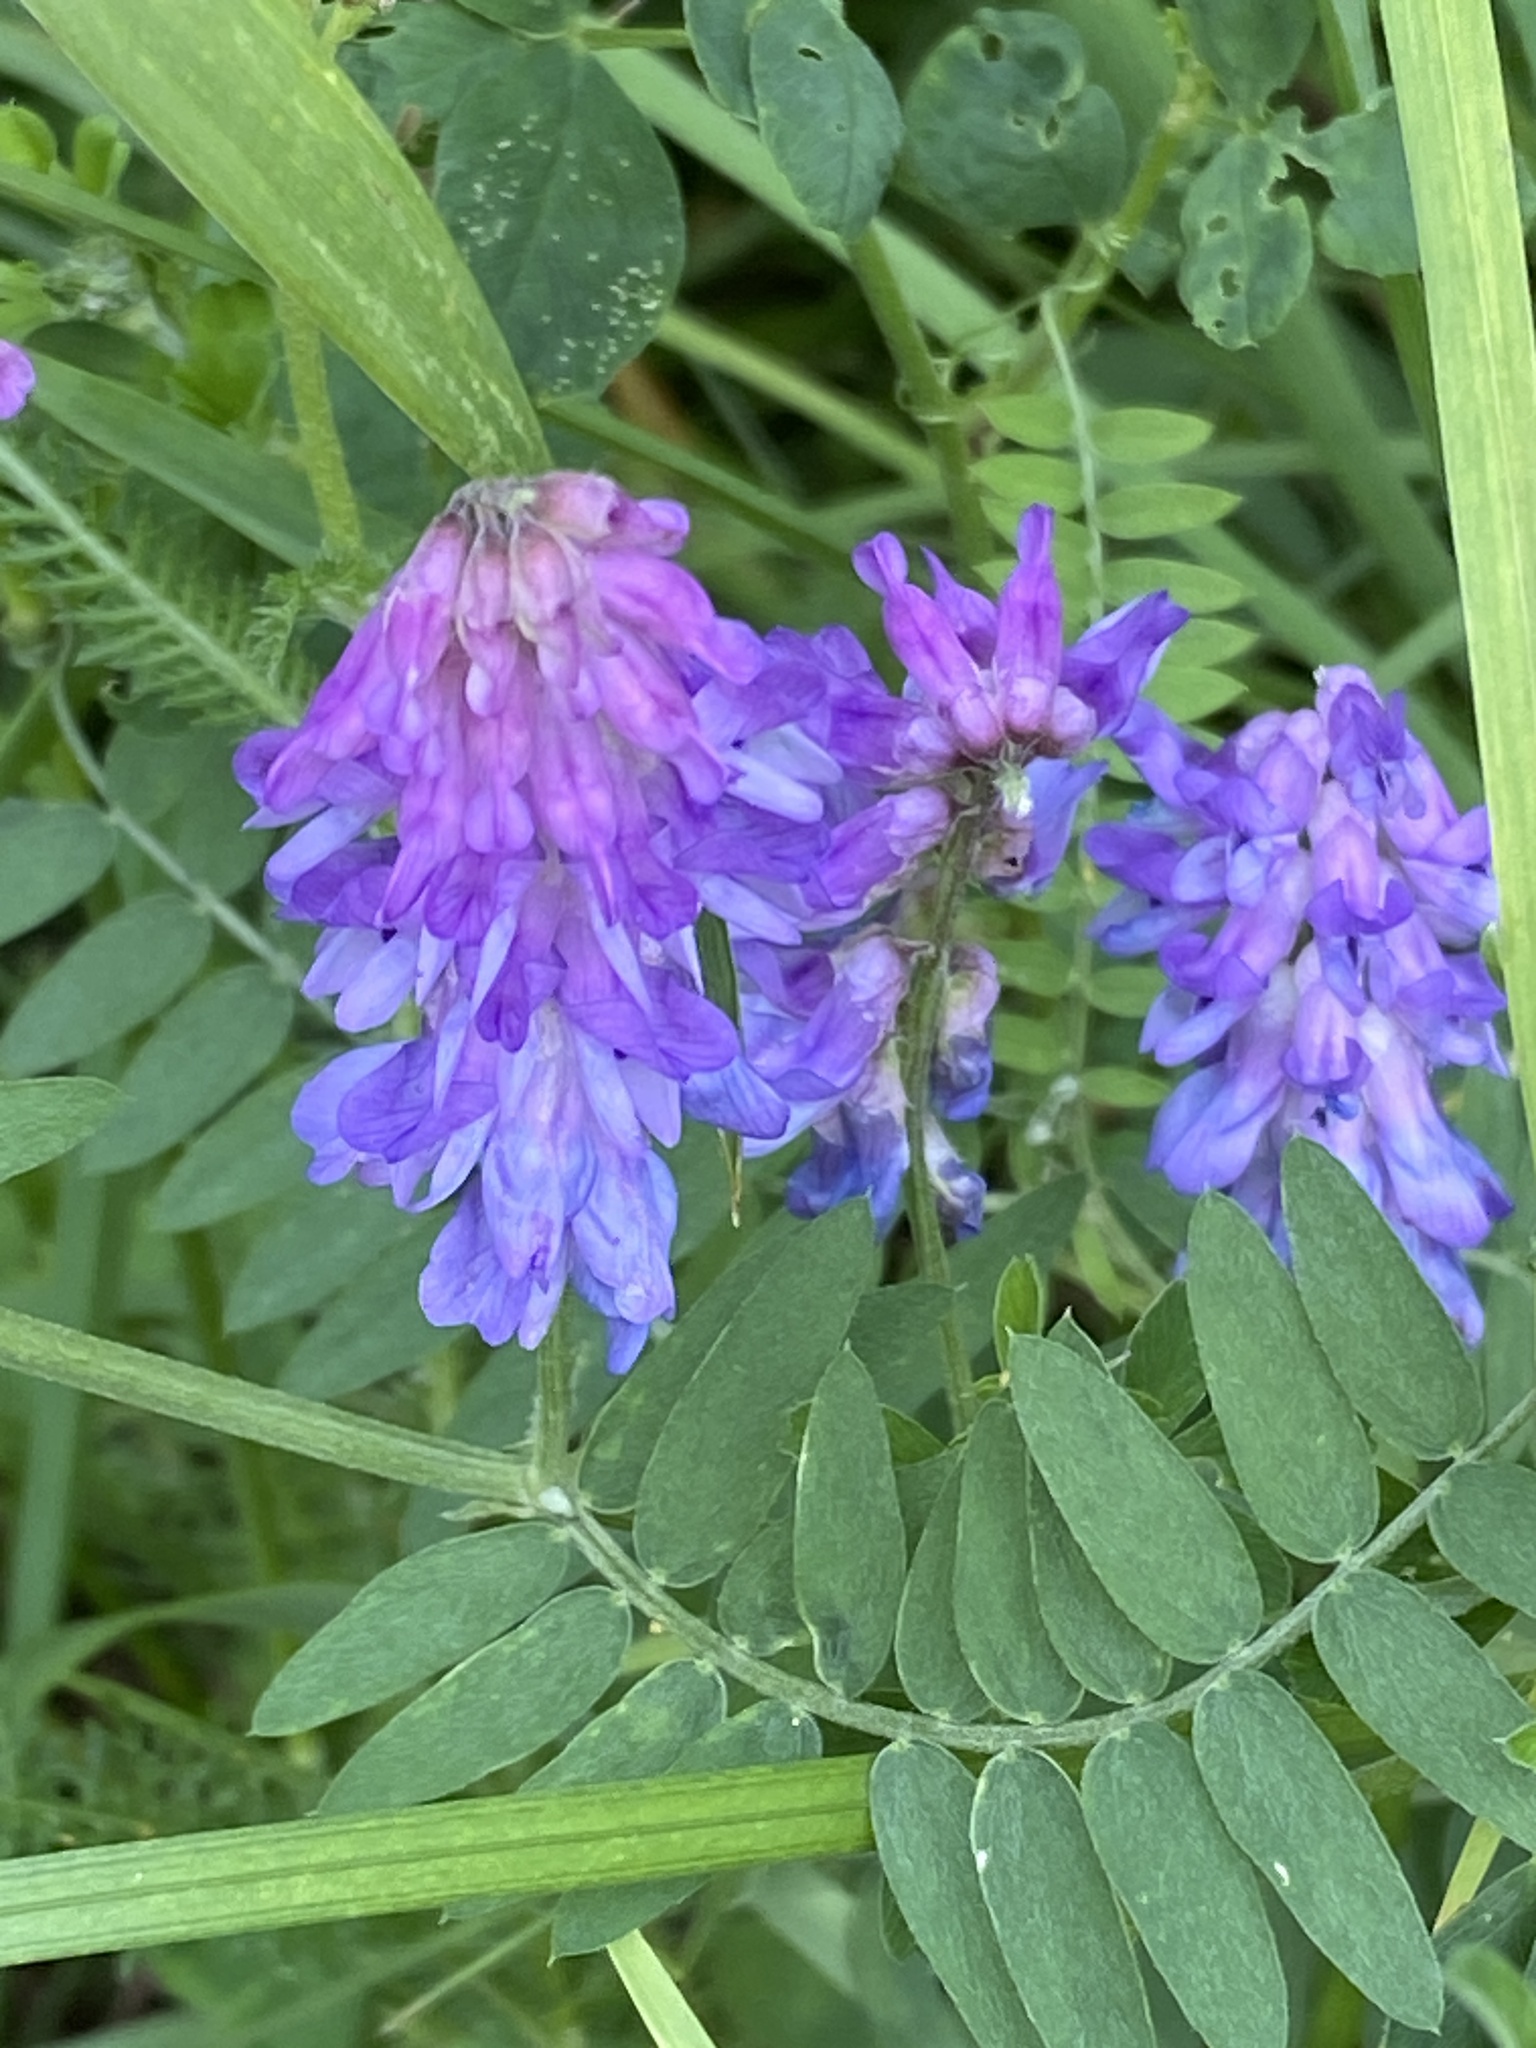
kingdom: Plantae
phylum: Tracheophyta
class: Magnoliopsida
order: Fabales
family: Fabaceae
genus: Vicia
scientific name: Vicia cracca
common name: Bird vetch
